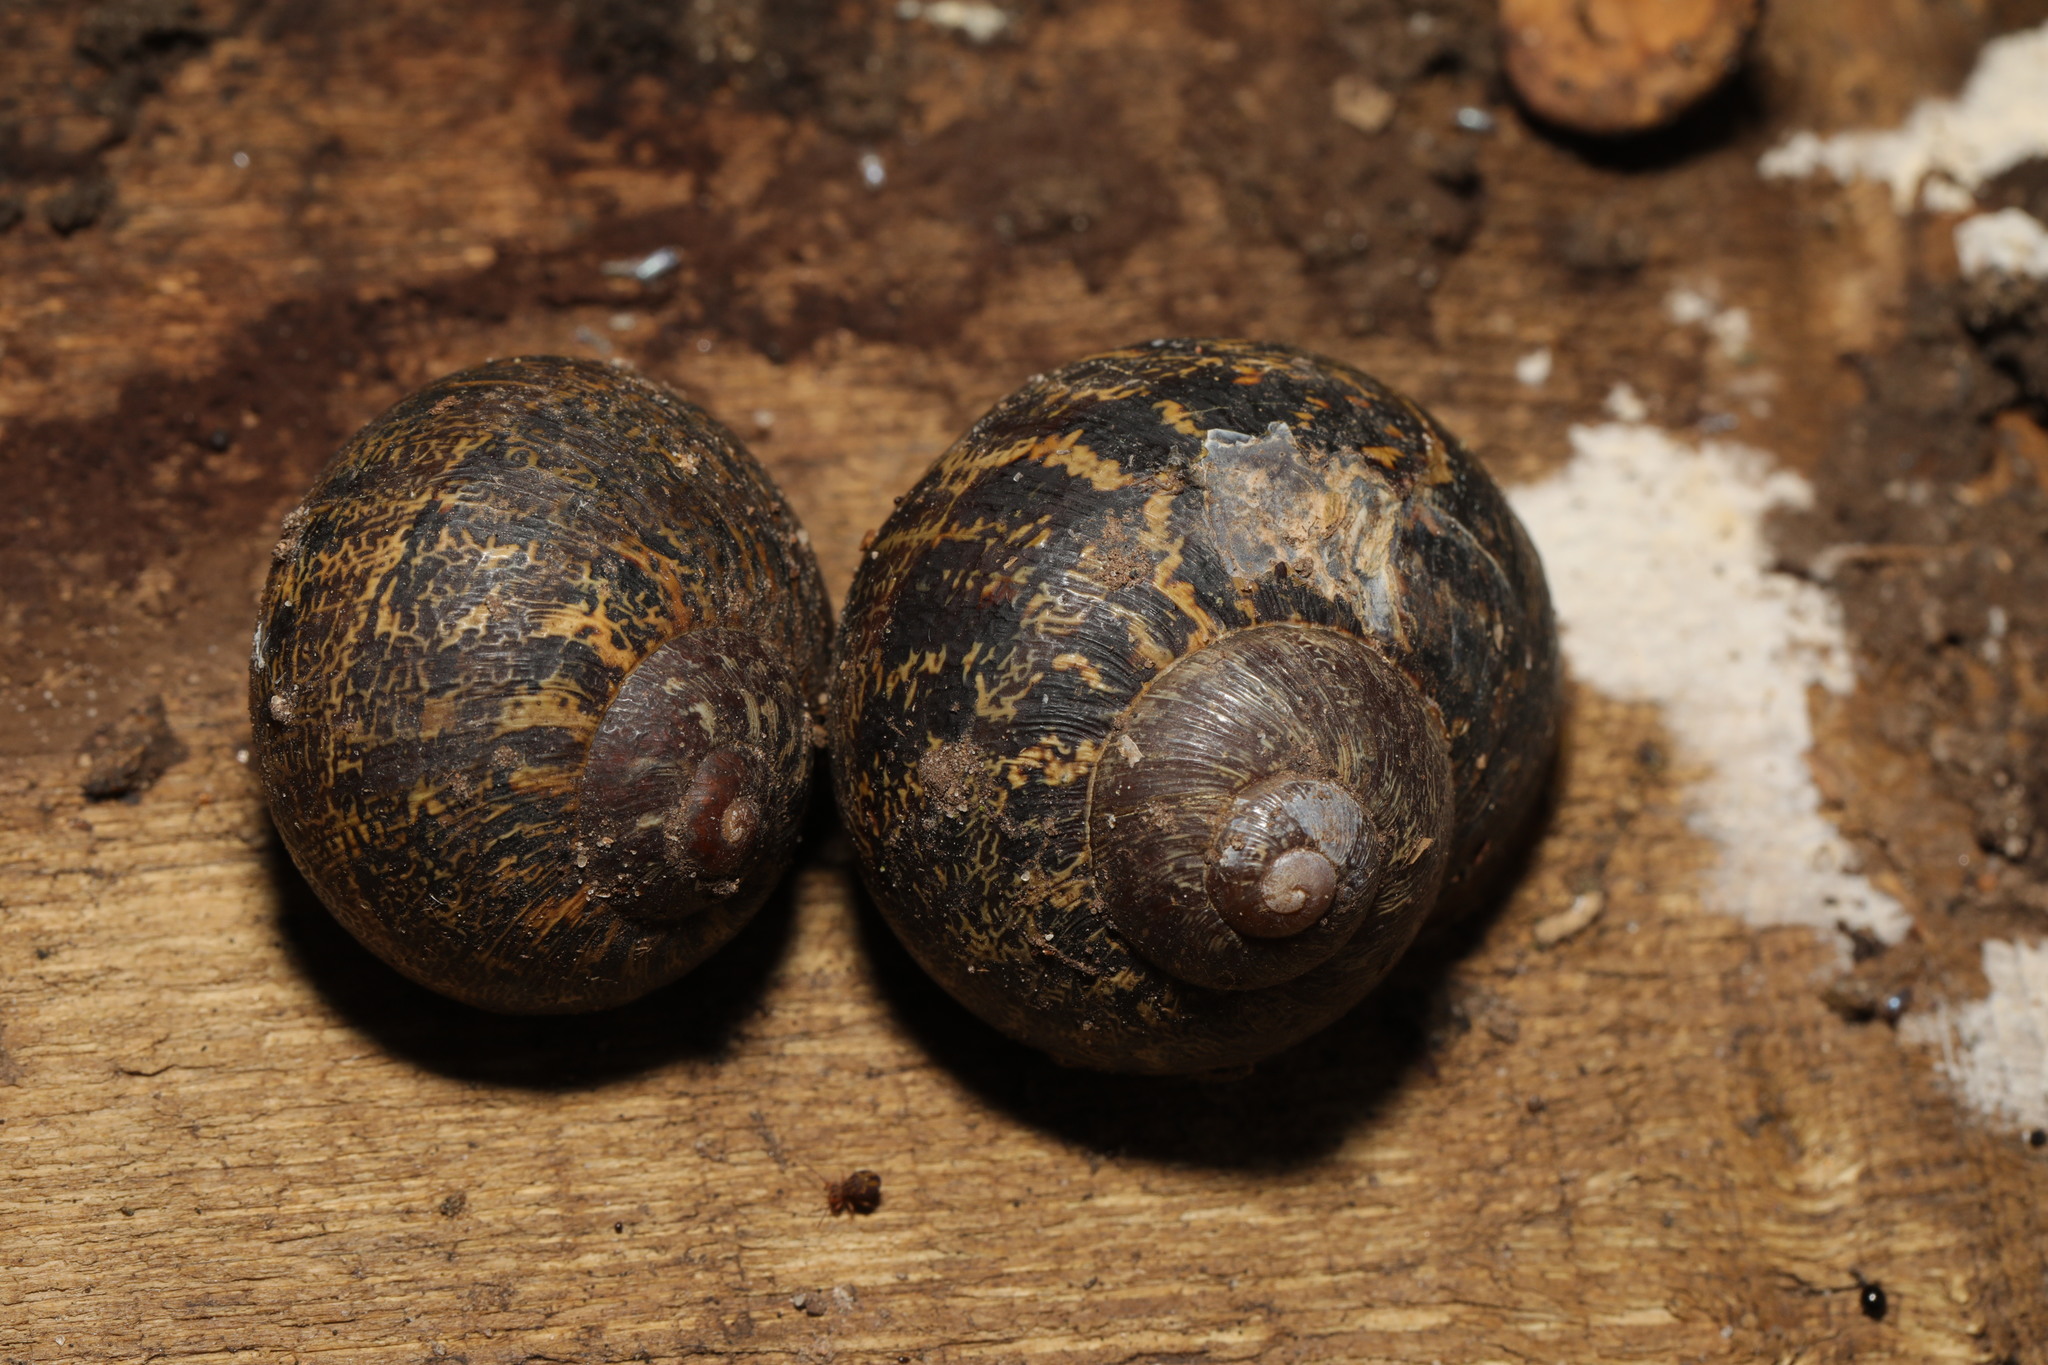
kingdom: Animalia
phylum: Mollusca
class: Gastropoda
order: Stylommatophora
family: Helicidae
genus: Cornu
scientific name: Cornu aspersum
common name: Brown garden snail
